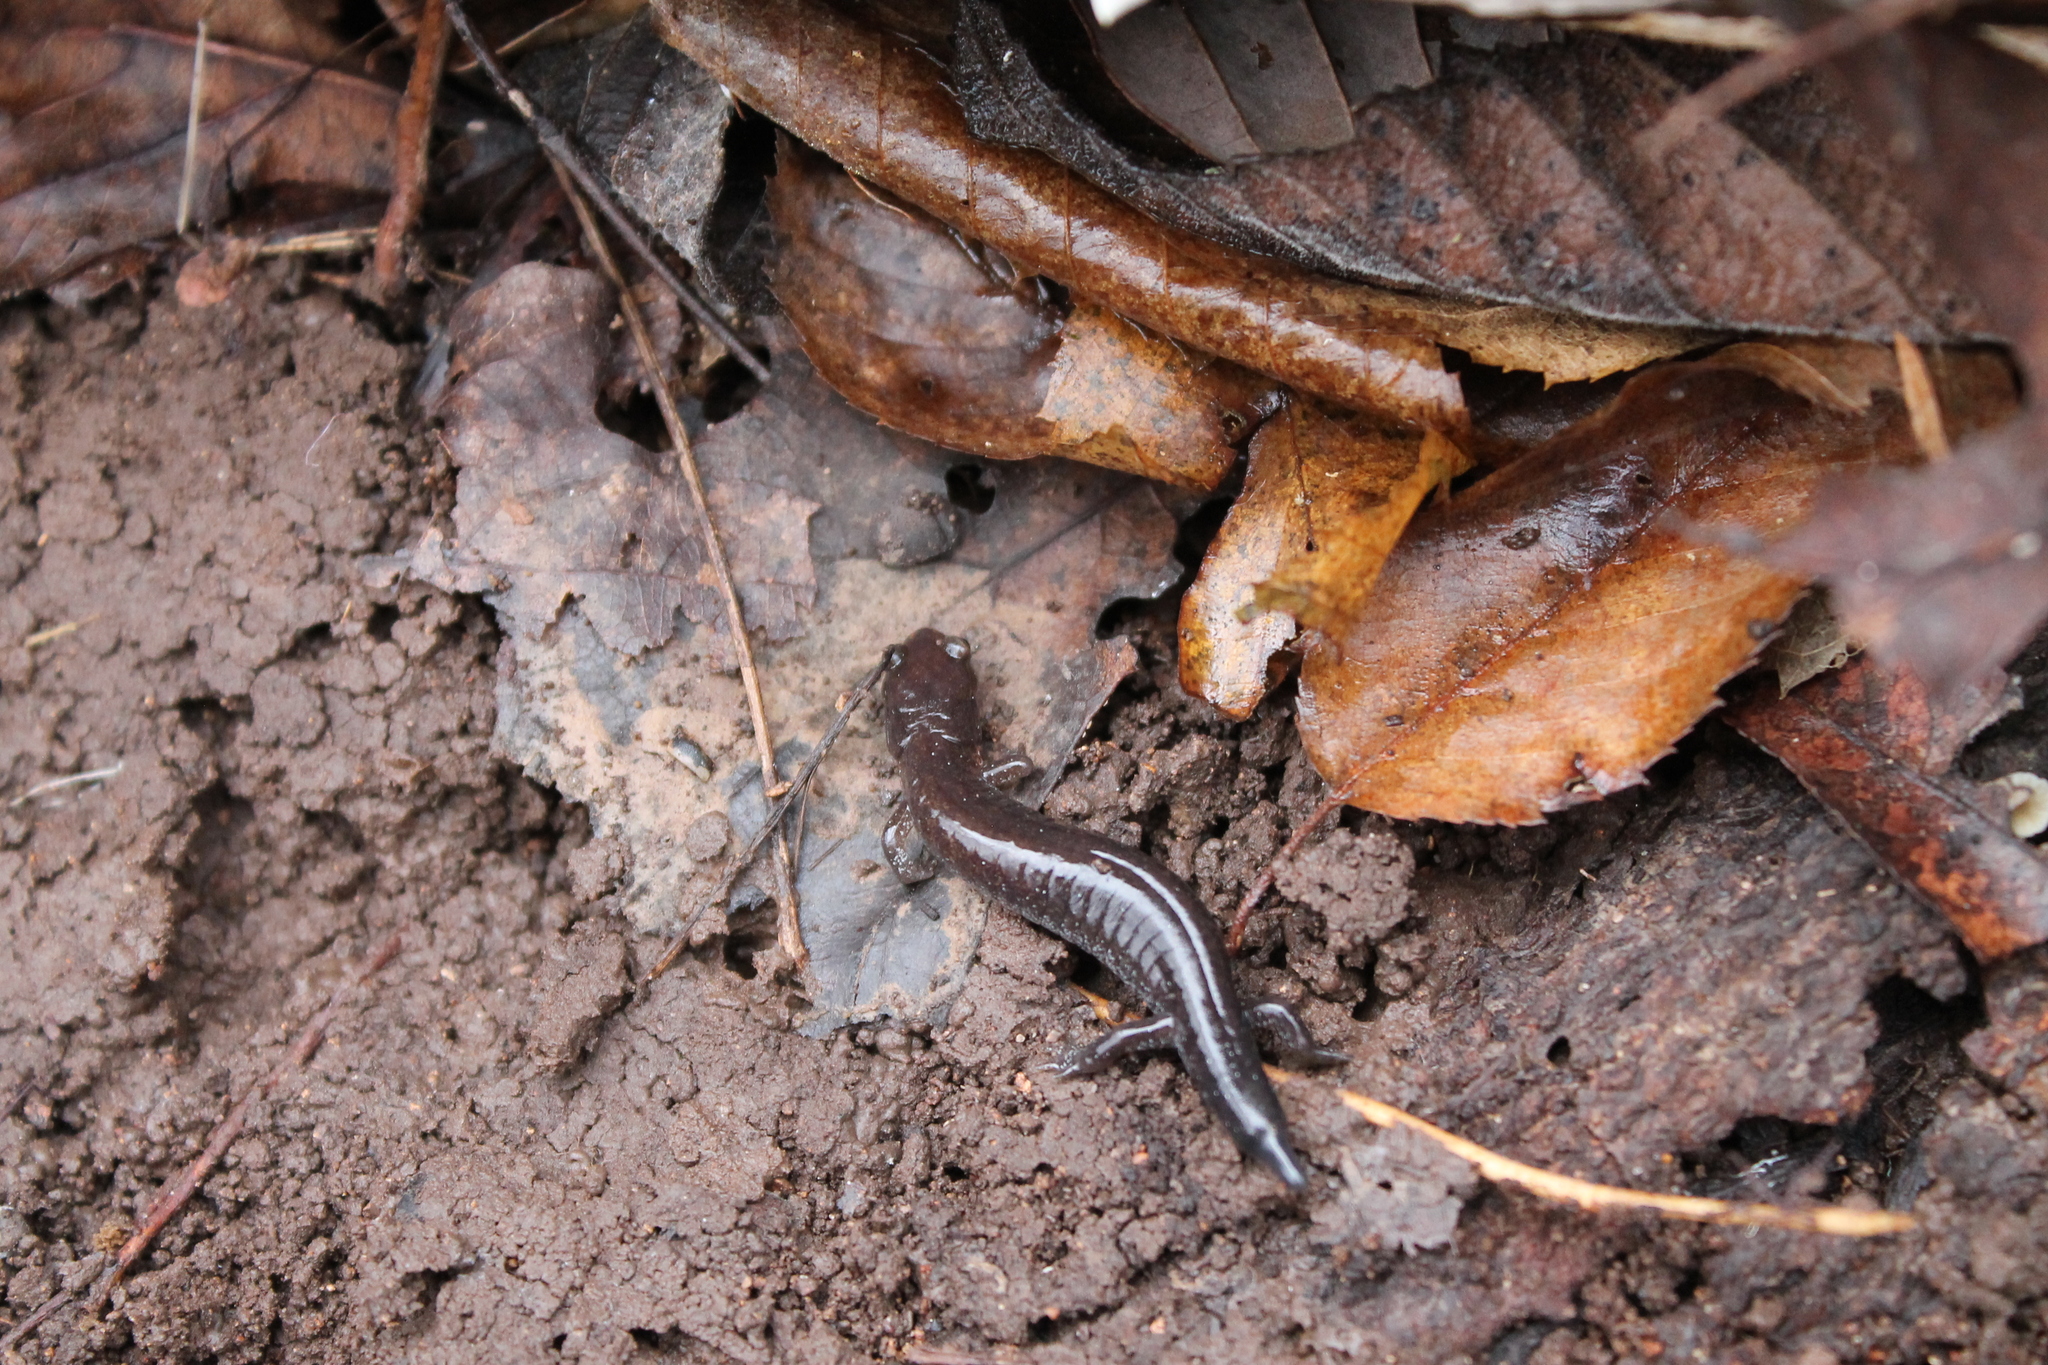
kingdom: Animalia
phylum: Chordata
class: Amphibia
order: Caudata
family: Plethodontidae
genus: Plethodon
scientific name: Plethodon dorsalis
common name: Northern zigzag salamander
